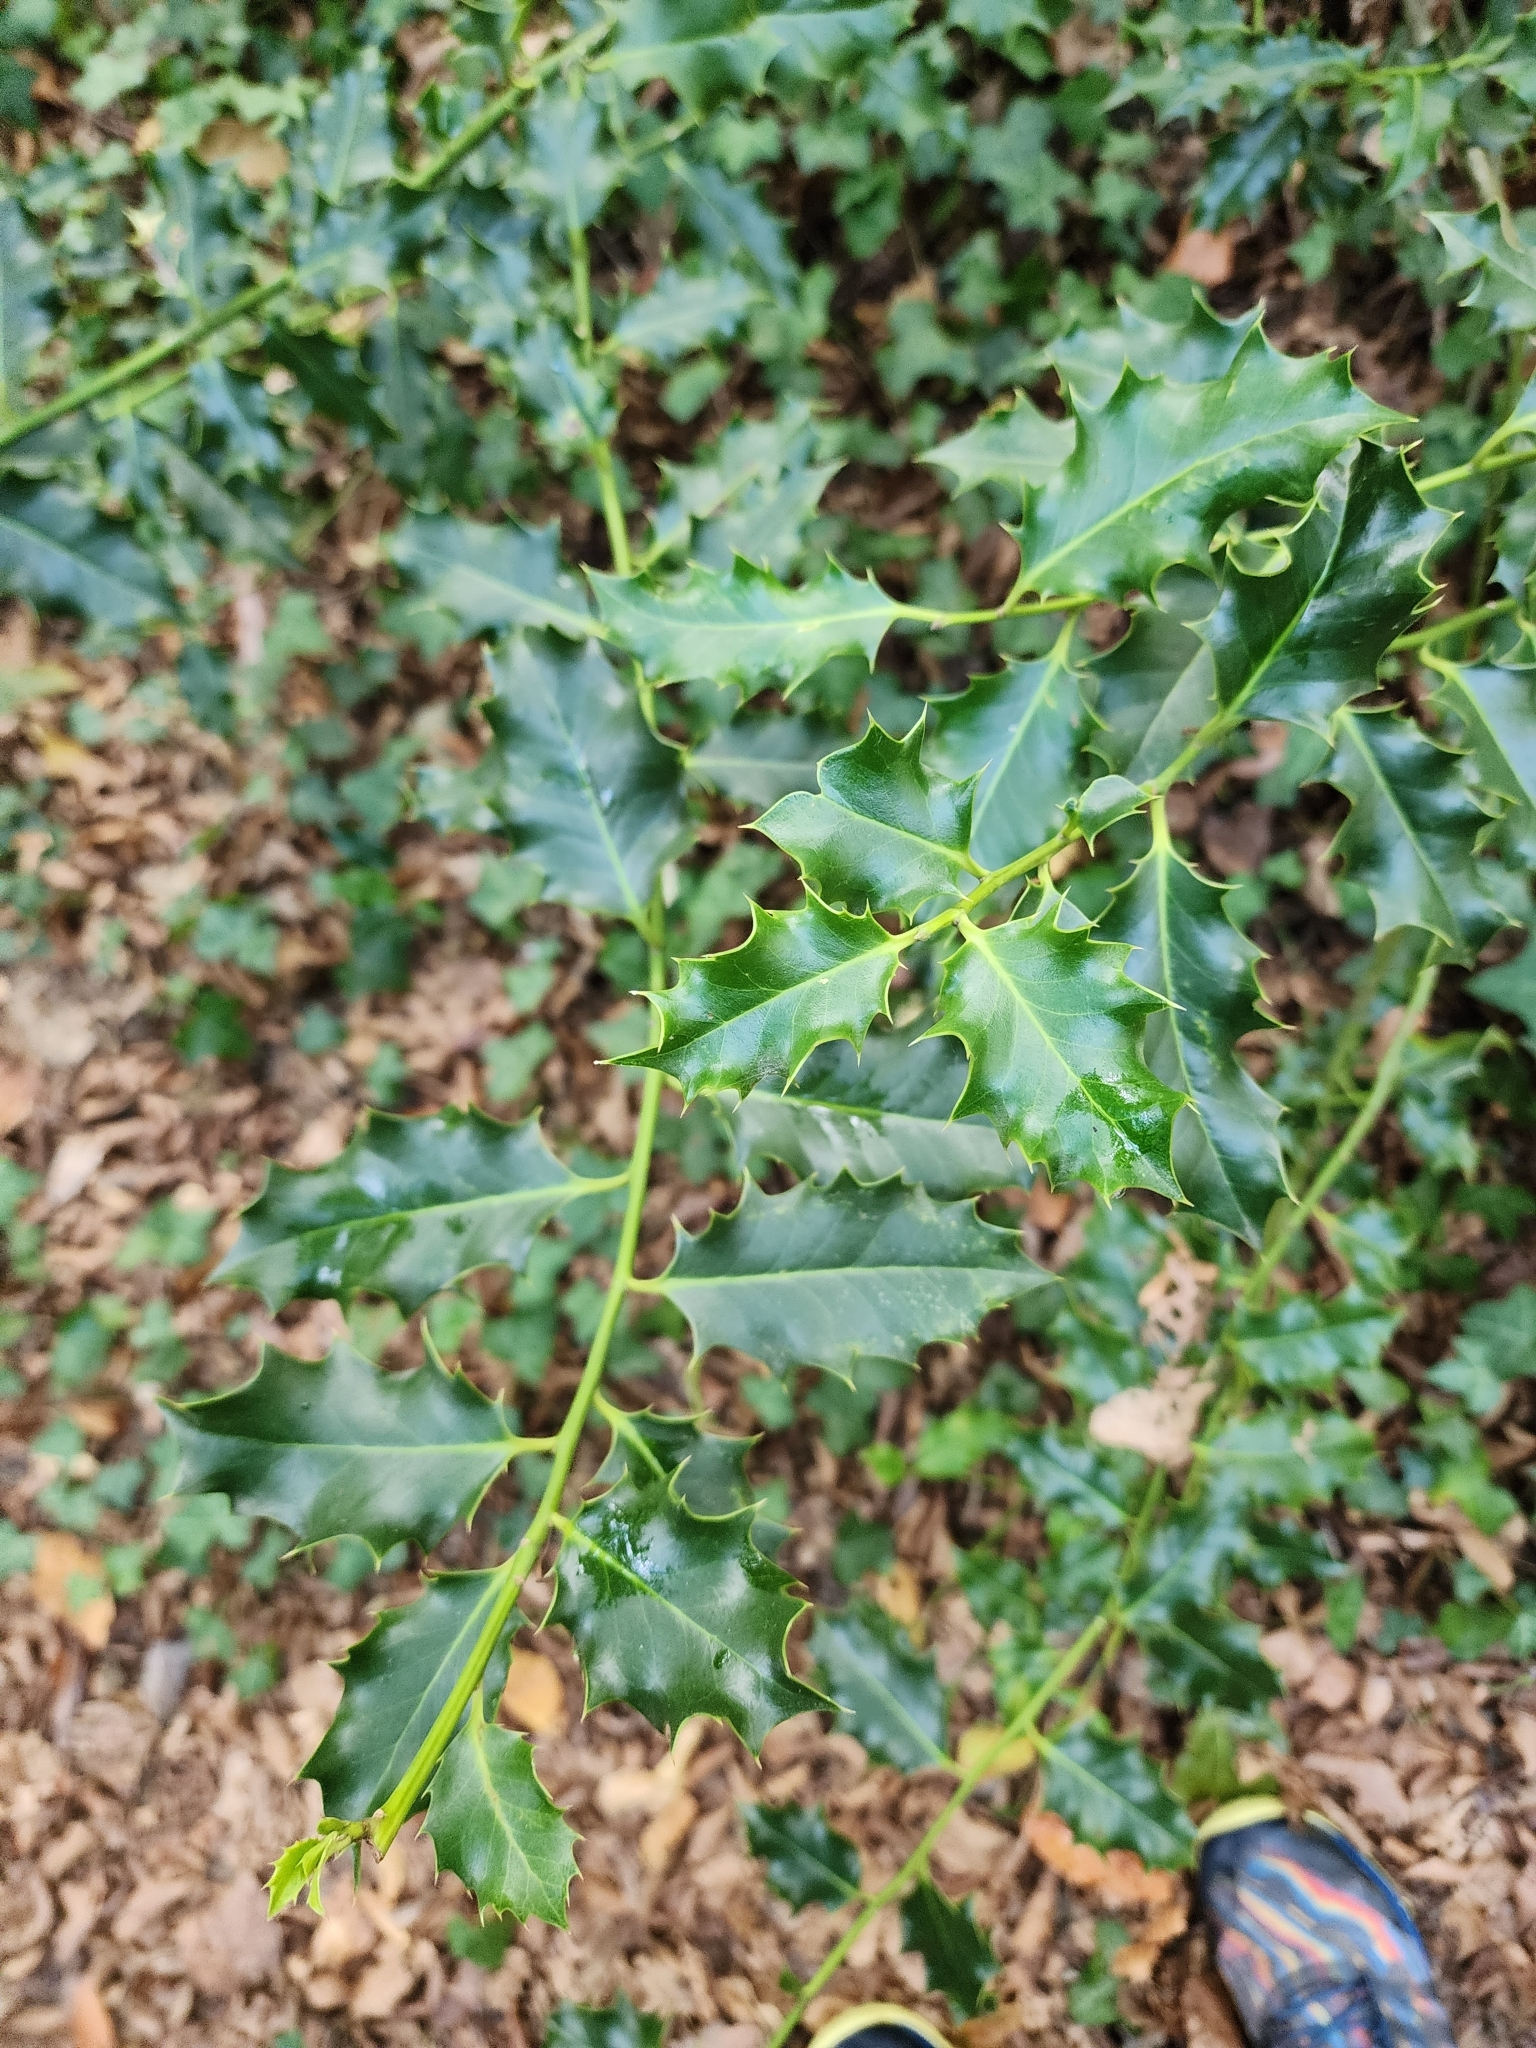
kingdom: Plantae
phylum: Tracheophyta
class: Magnoliopsida
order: Aquifoliales
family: Aquifoliaceae
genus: Ilex
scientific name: Ilex aquifolium
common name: English holly
